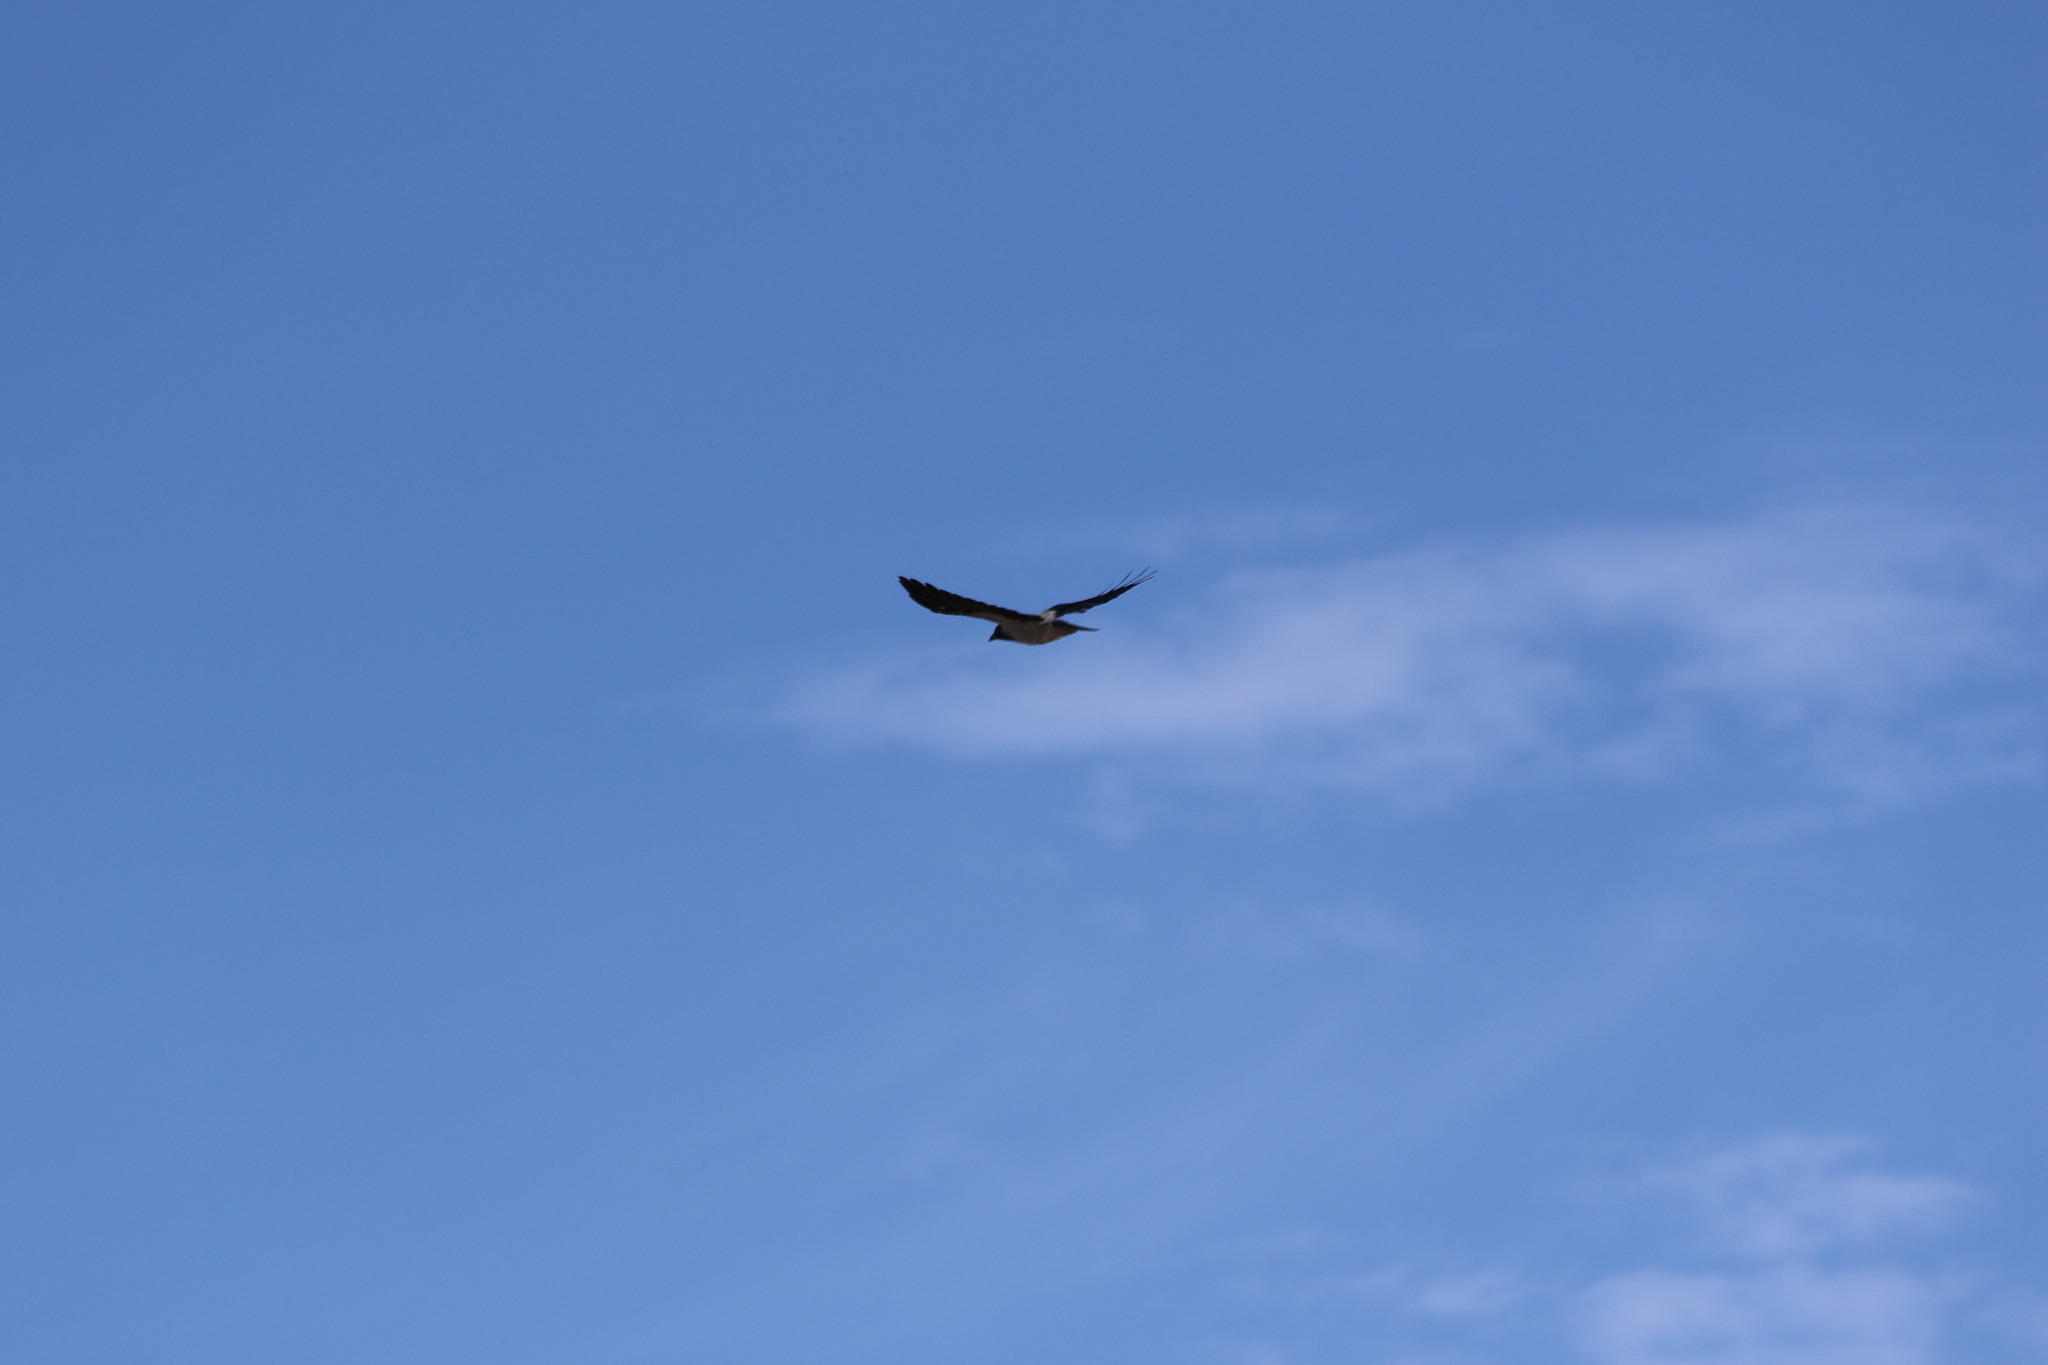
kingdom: Animalia
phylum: Chordata
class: Aves
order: Passeriformes
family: Corvidae
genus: Corvus
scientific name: Corvus cornix
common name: Hooded crow
